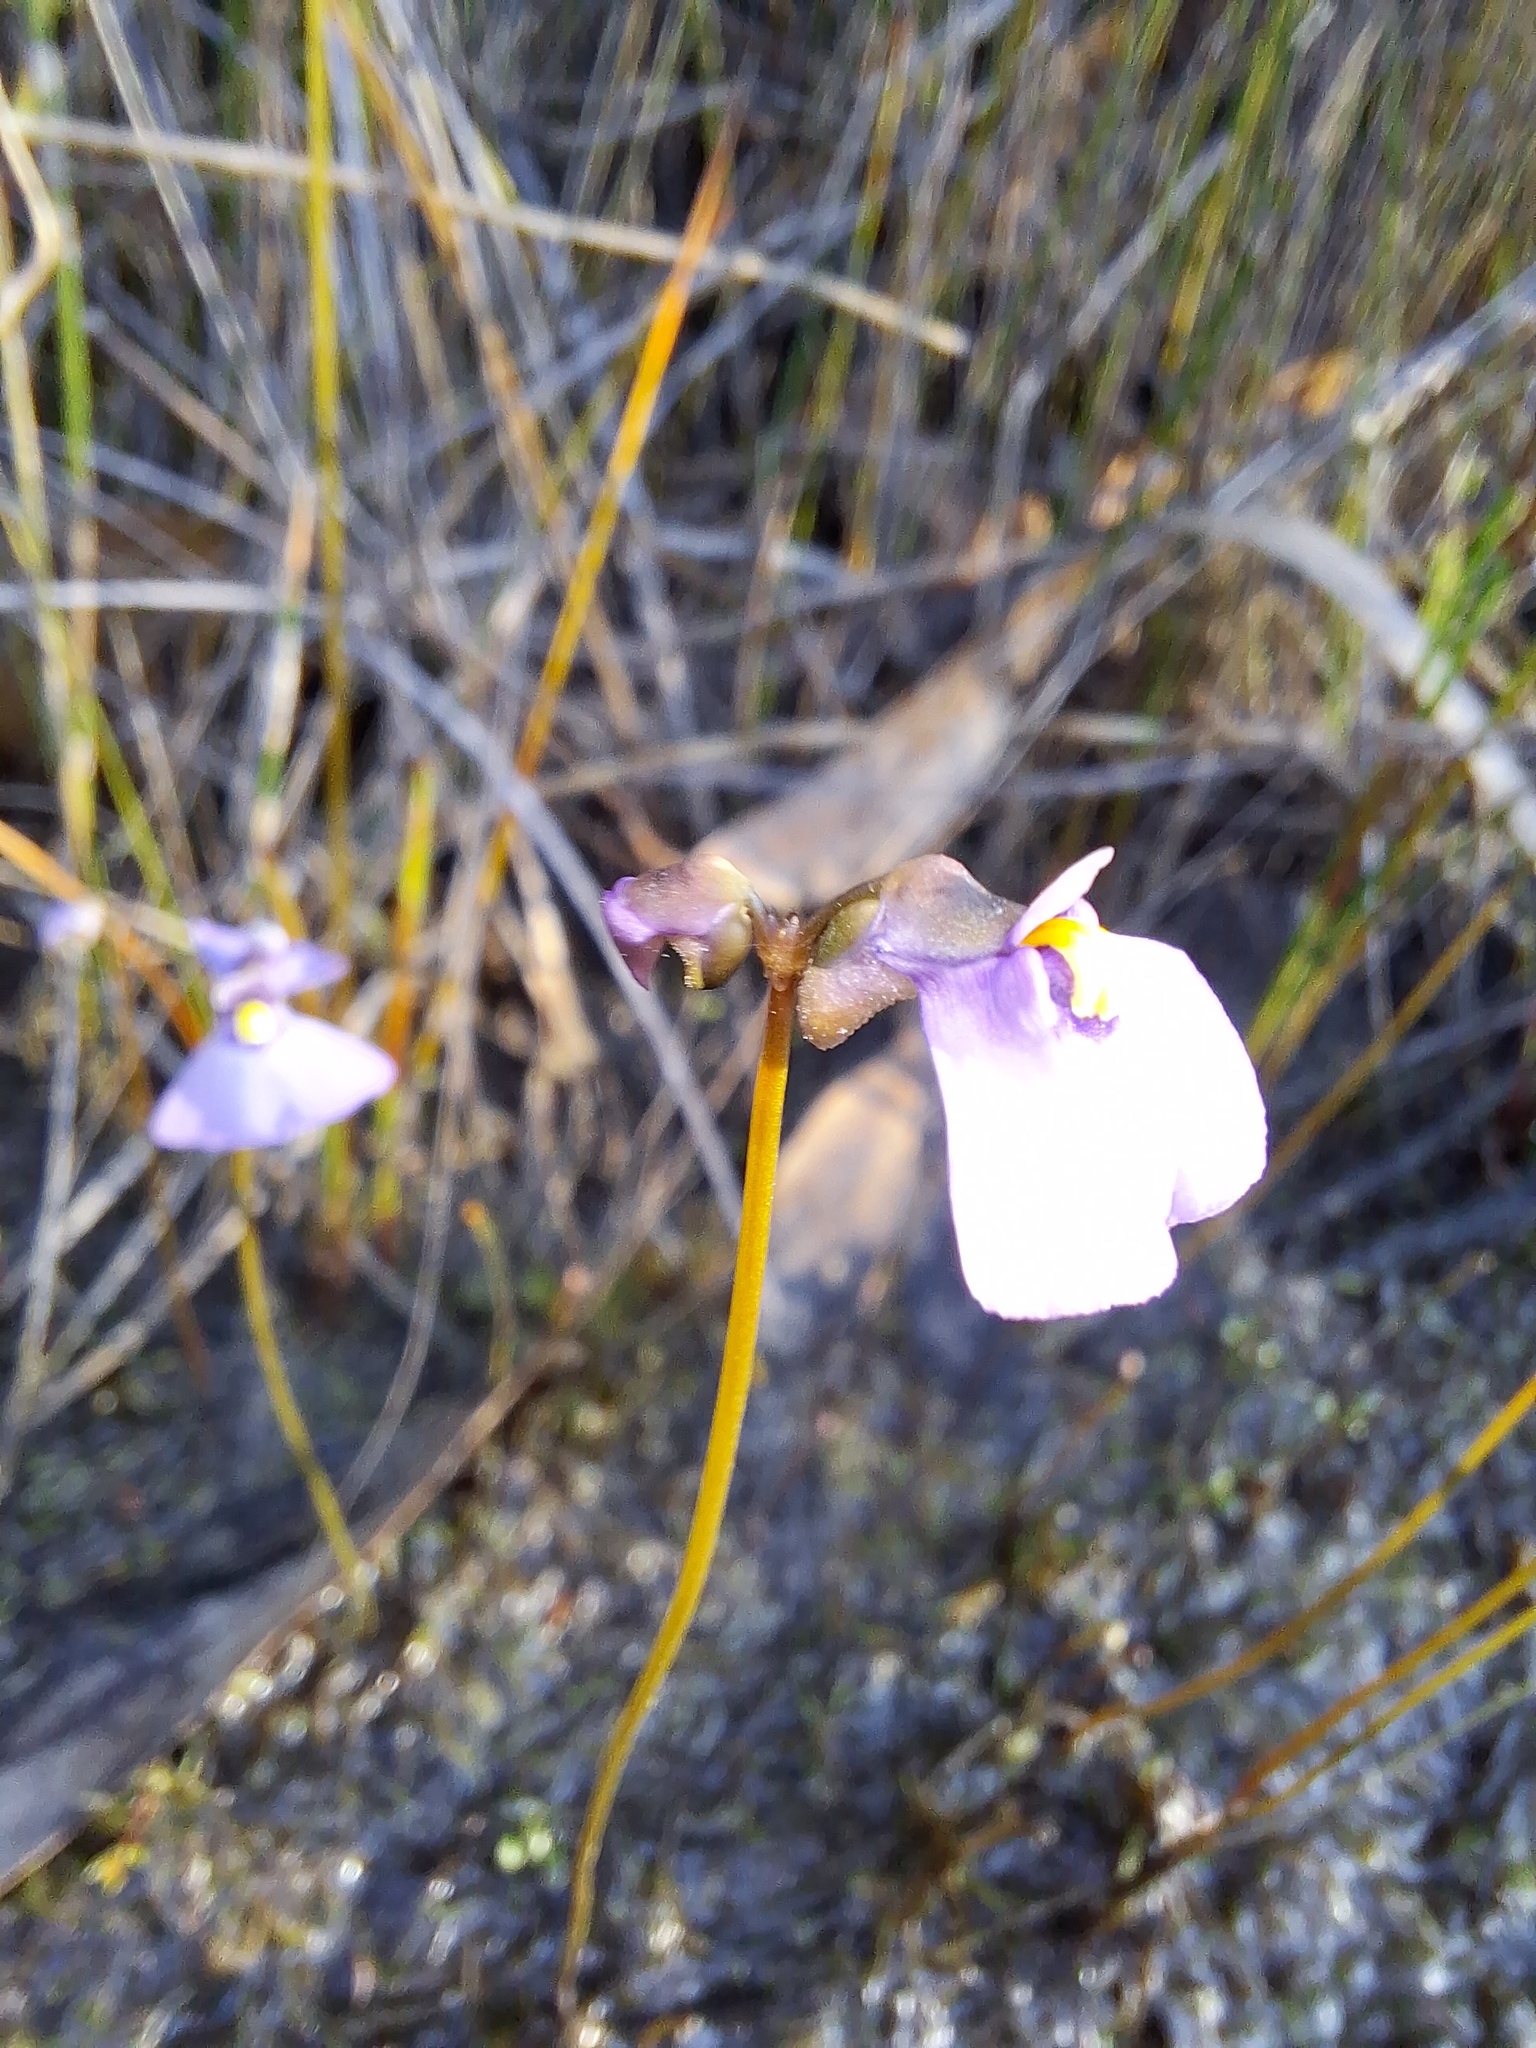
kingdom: Plantae
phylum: Tracheophyta
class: Magnoliopsida
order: Lamiales
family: Lentibulariaceae
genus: Utricularia
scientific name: Utricularia barkeri
